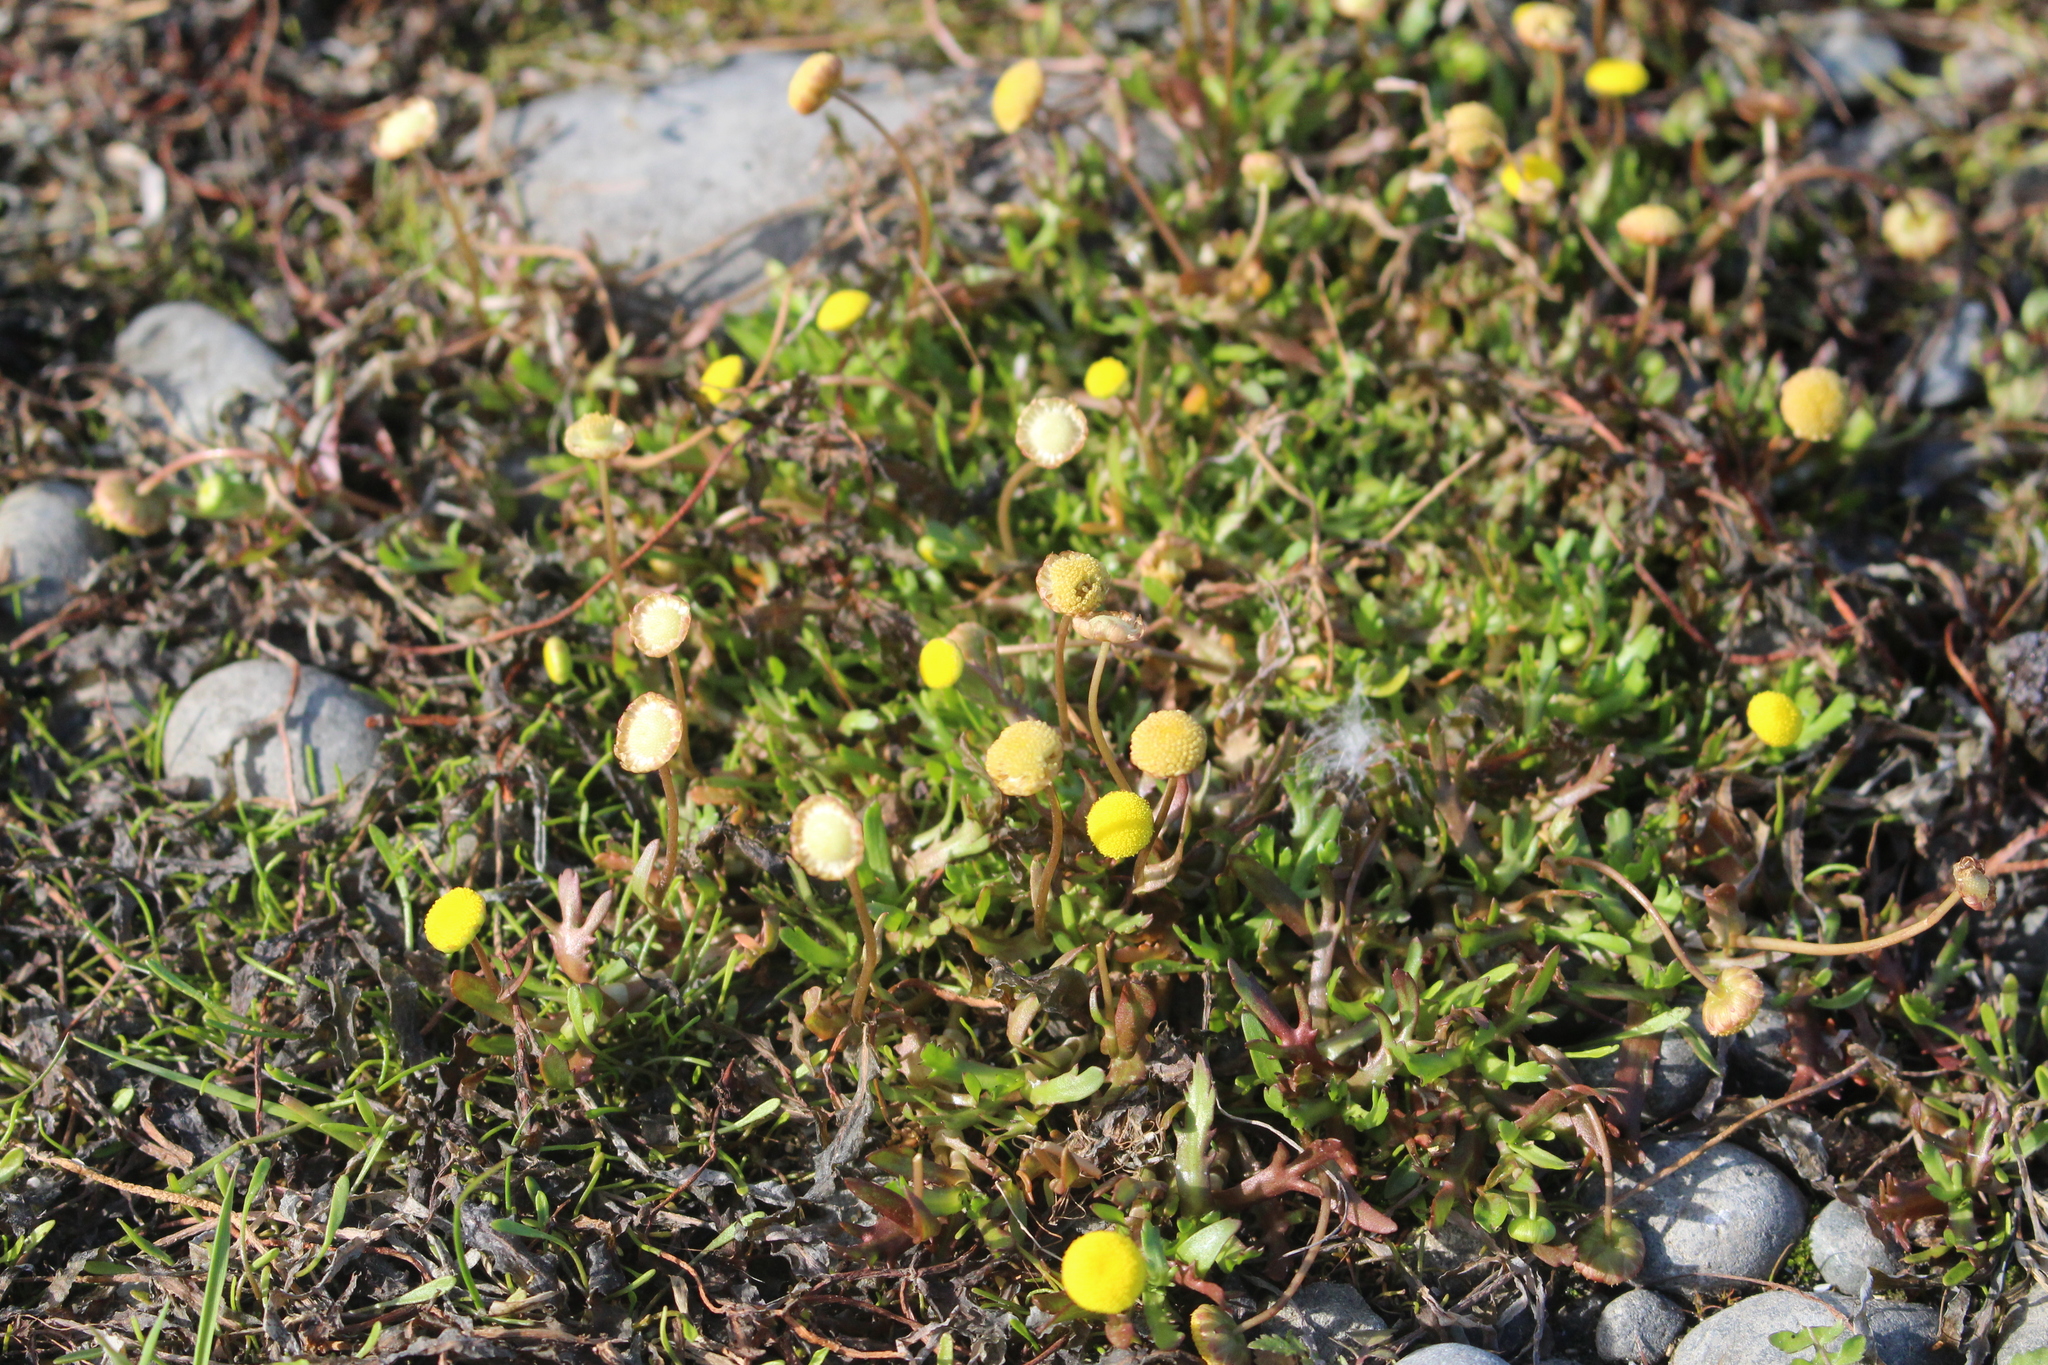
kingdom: Plantae
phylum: Tracheophyta
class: Magnoliopsida
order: Asterales
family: Asteraceae
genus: Cotula
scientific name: Cotula coronopifolia
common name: Buttonweed
